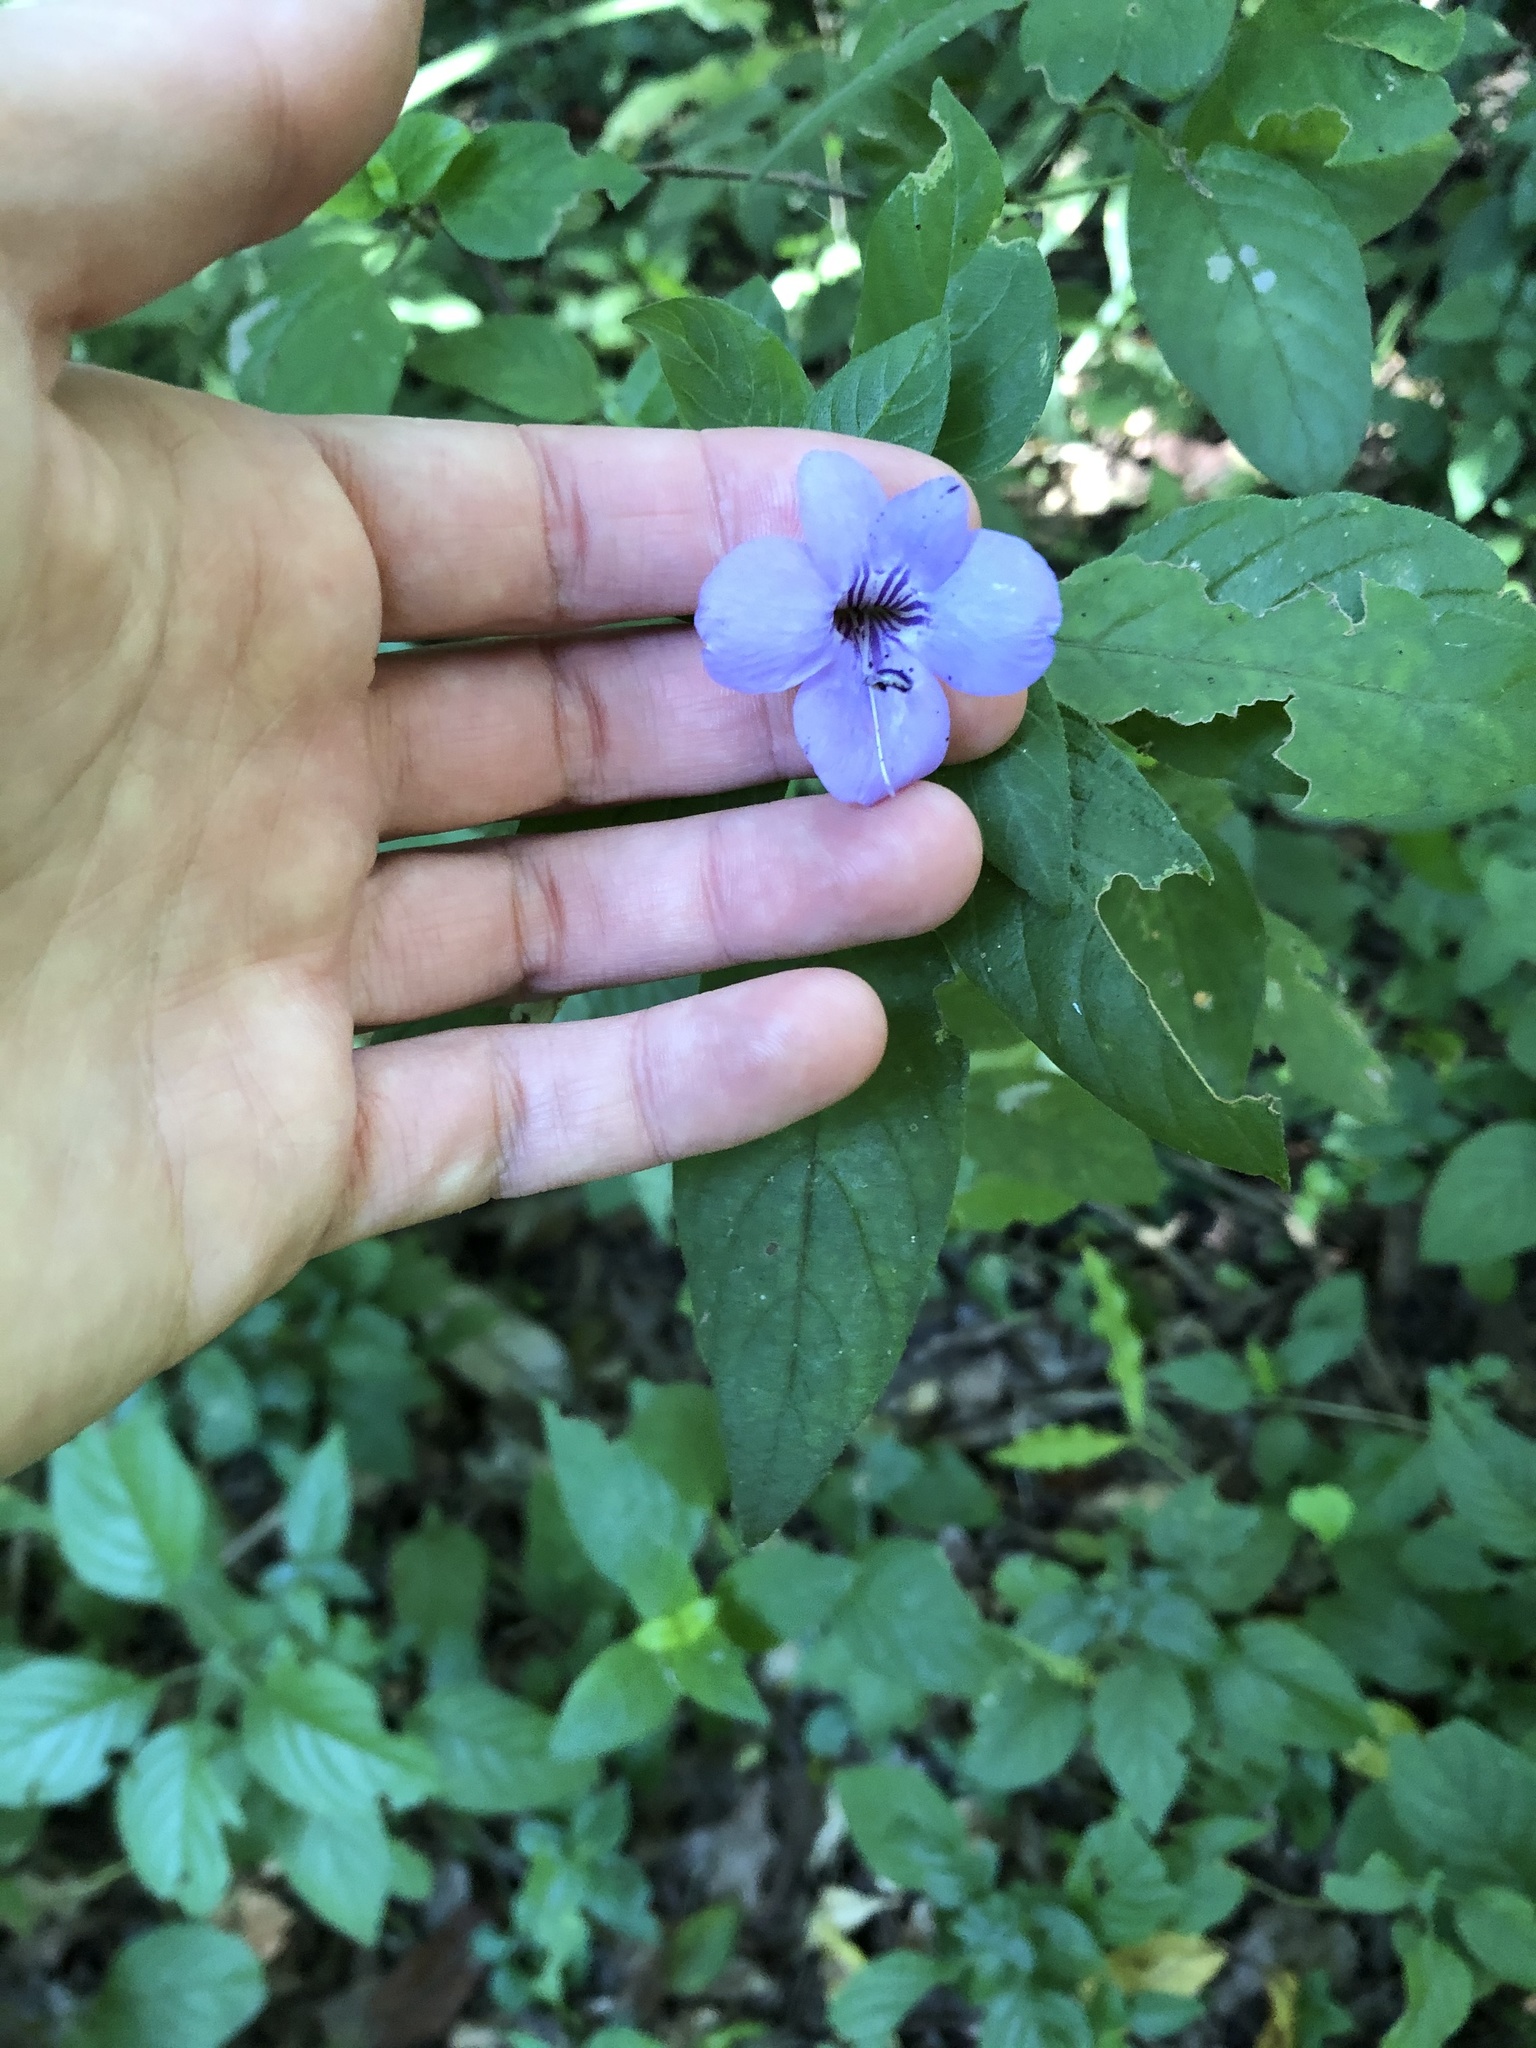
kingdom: Plantae
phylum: Tracheophyta
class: Magnoliopsida
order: Lamiales
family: Acanthaceae
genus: Barleria
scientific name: Barleria gueinzii
